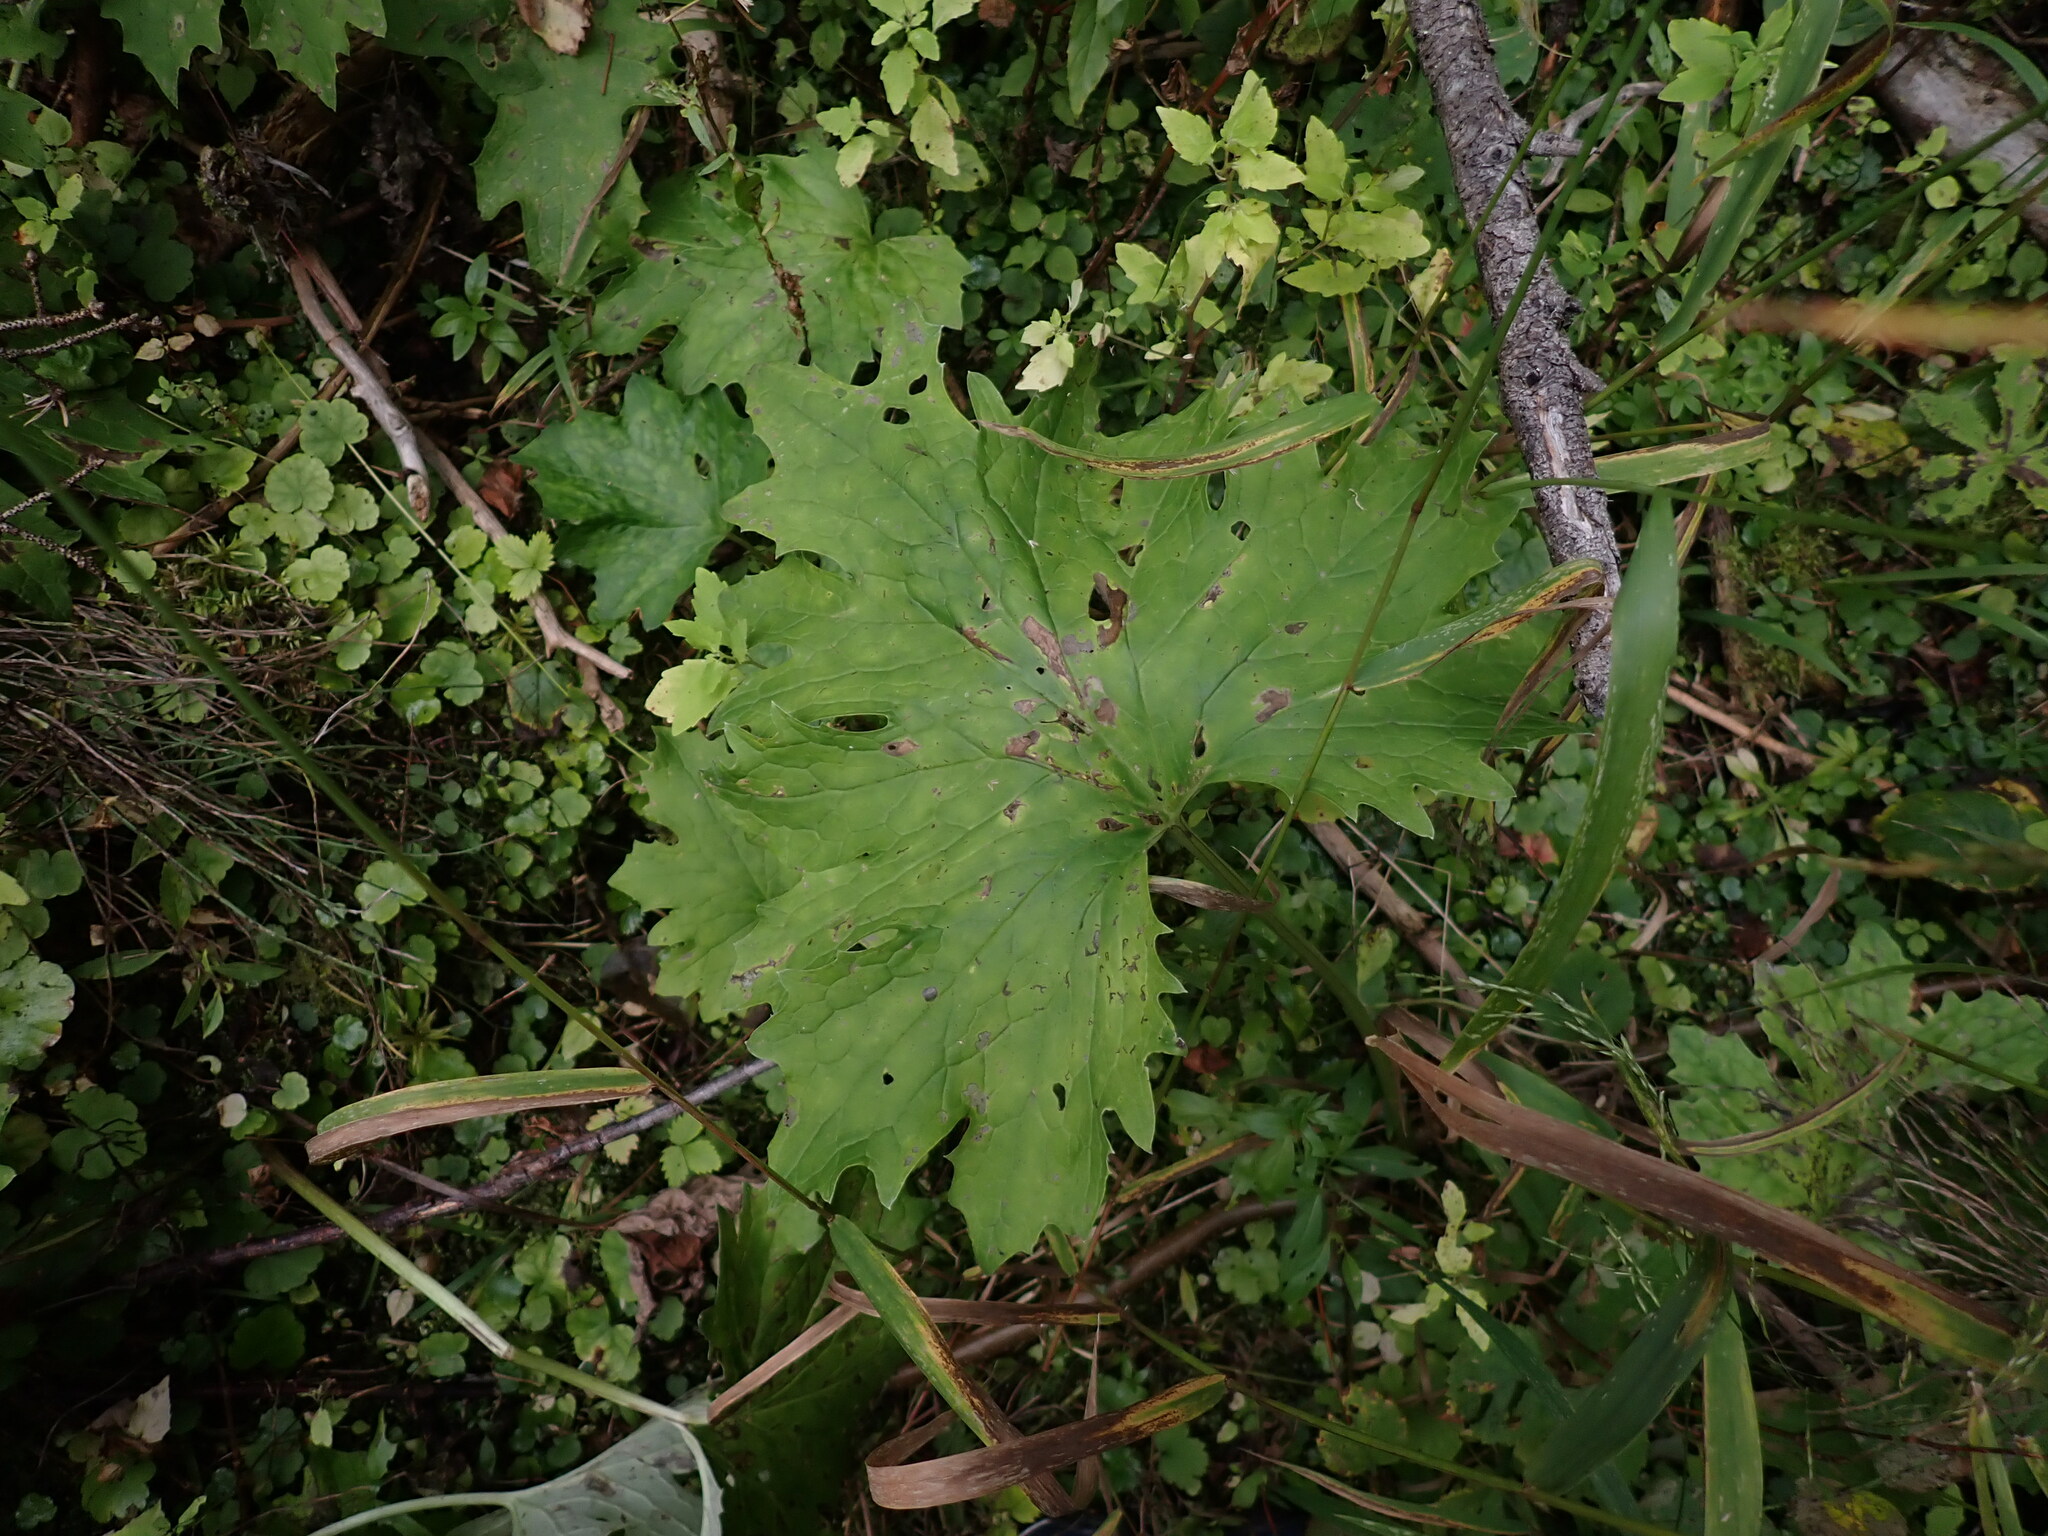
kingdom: Plantae
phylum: Tracheophyta
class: Magnoliopsida
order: Asterales
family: Asteraceae
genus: Petasites
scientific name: Petasites frigidus
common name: Arctic butterbur
